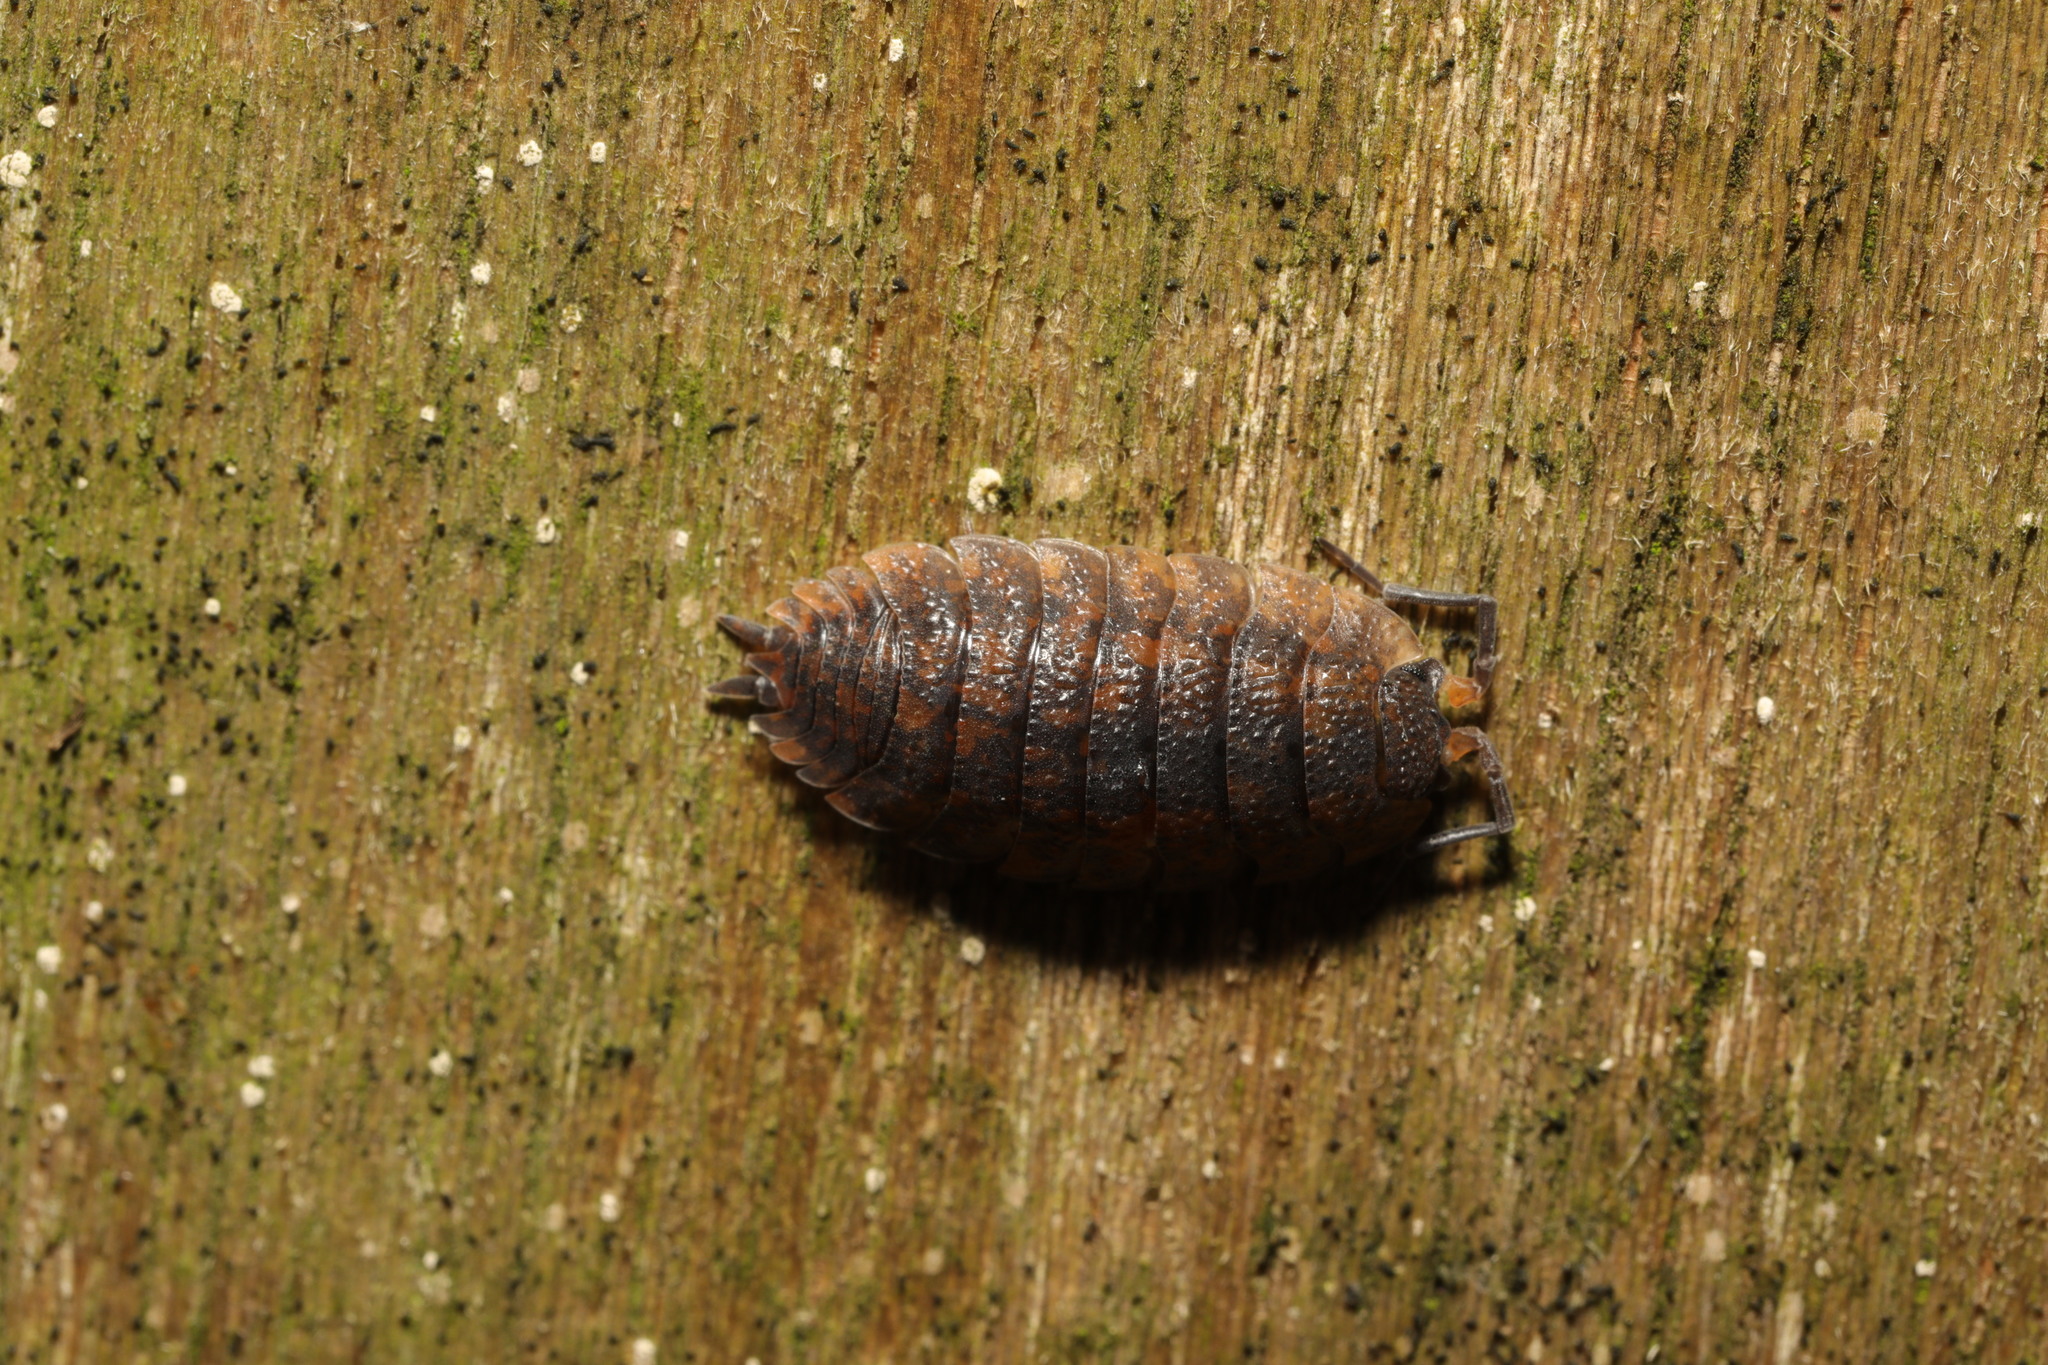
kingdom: Animalia
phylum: Arthropoda
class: Malacostraca
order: Isopoda
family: Porcellionidae
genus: Porcellio
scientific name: Porcellio scaber
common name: Common rough woodlouse
